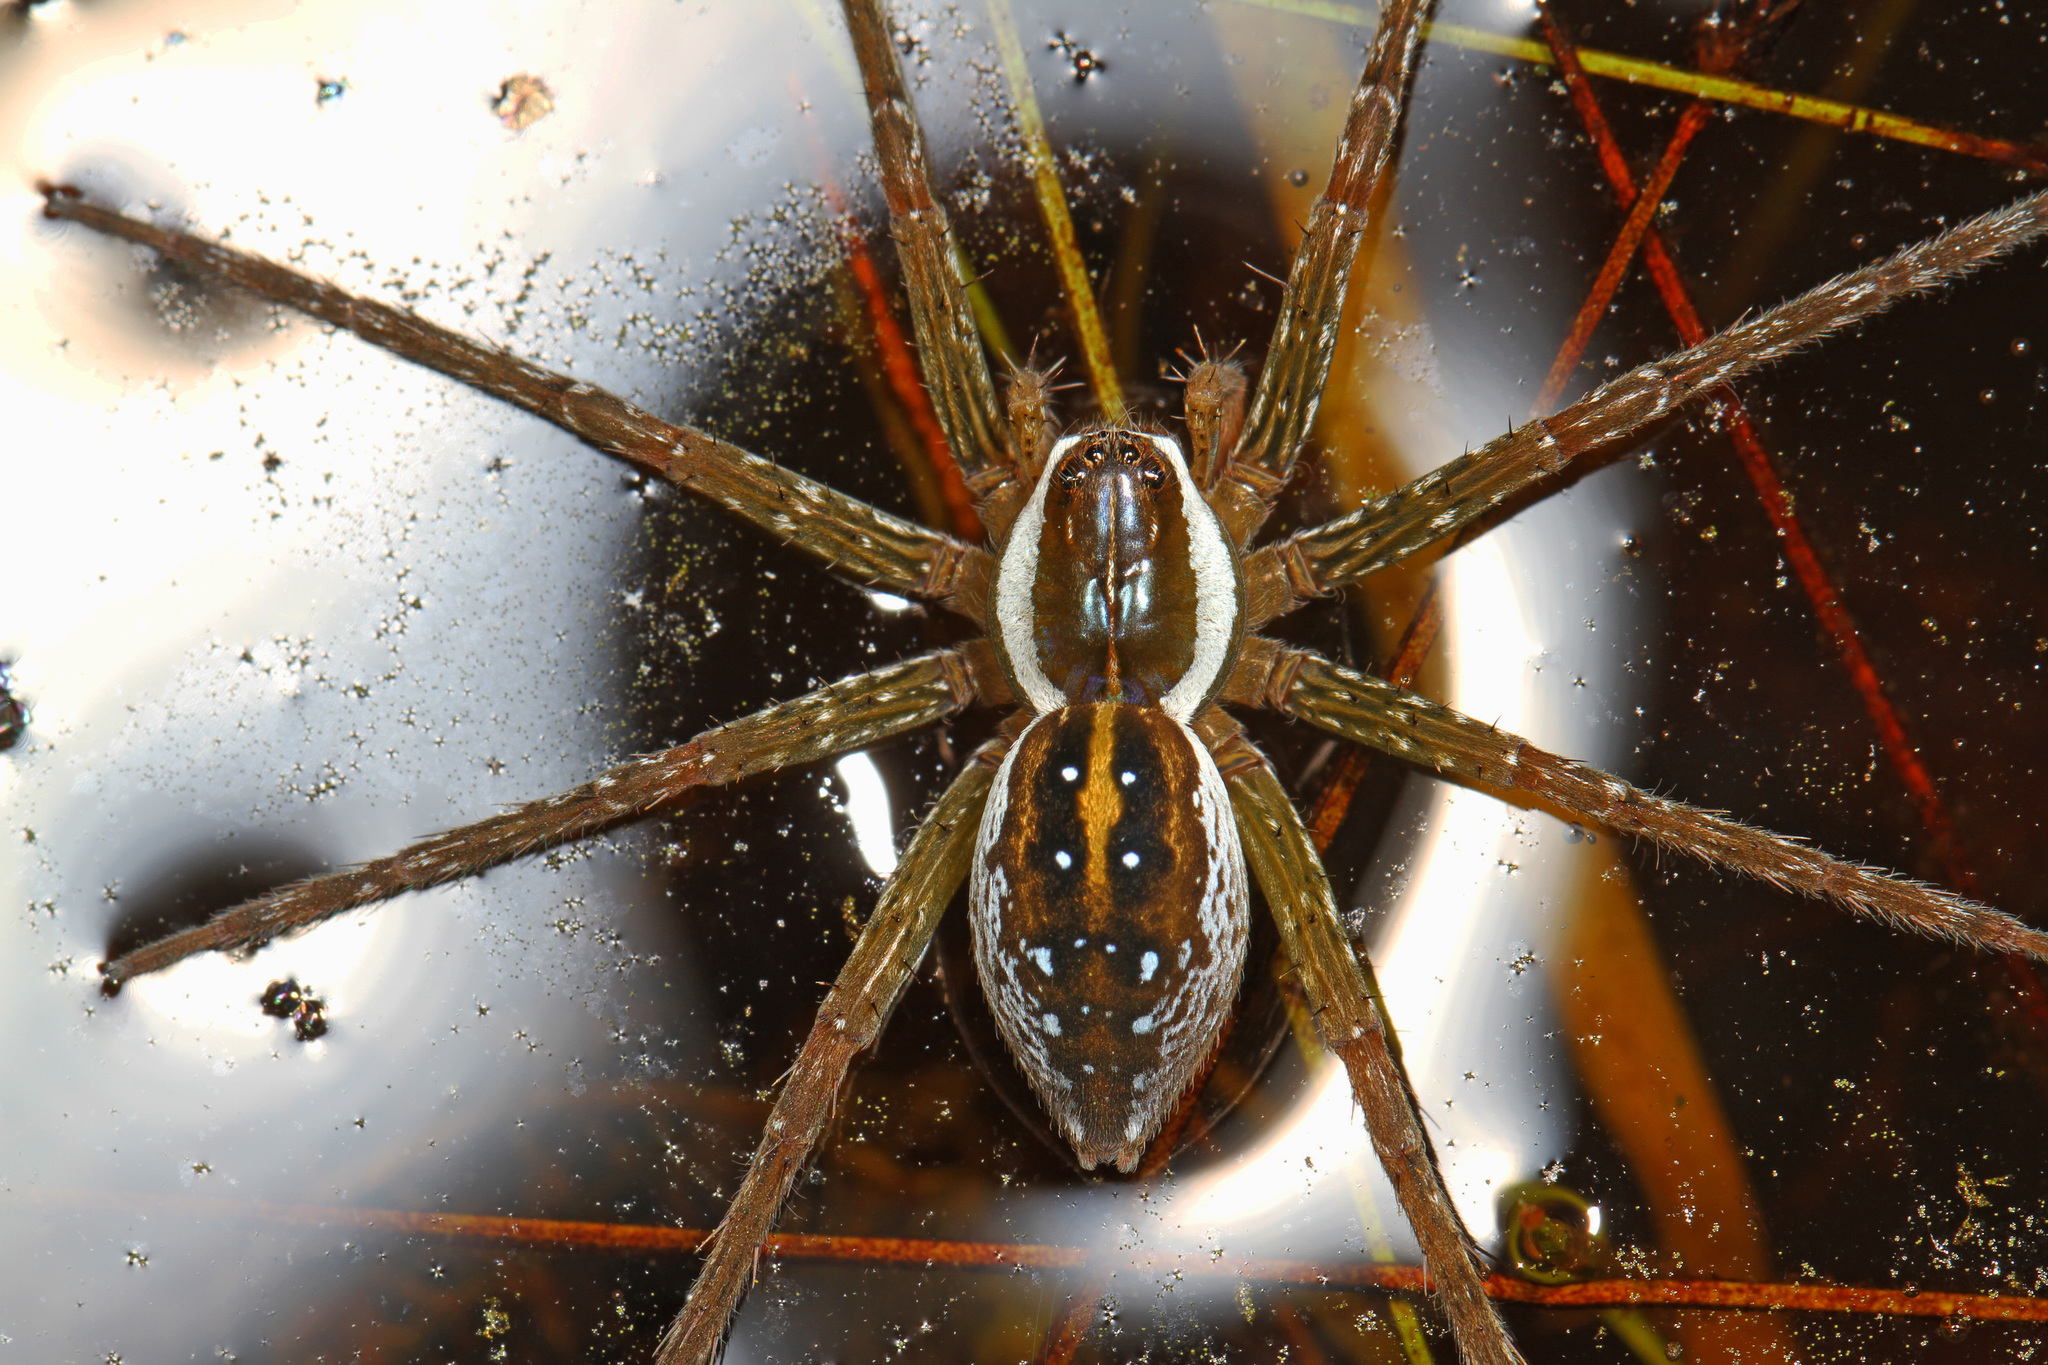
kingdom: Animalia
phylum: Arthropoda
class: Arachnida
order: Araneae
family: Pisauridae
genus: Dolomedes
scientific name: Dolomedes triton
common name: Six-spotted fishing spider
